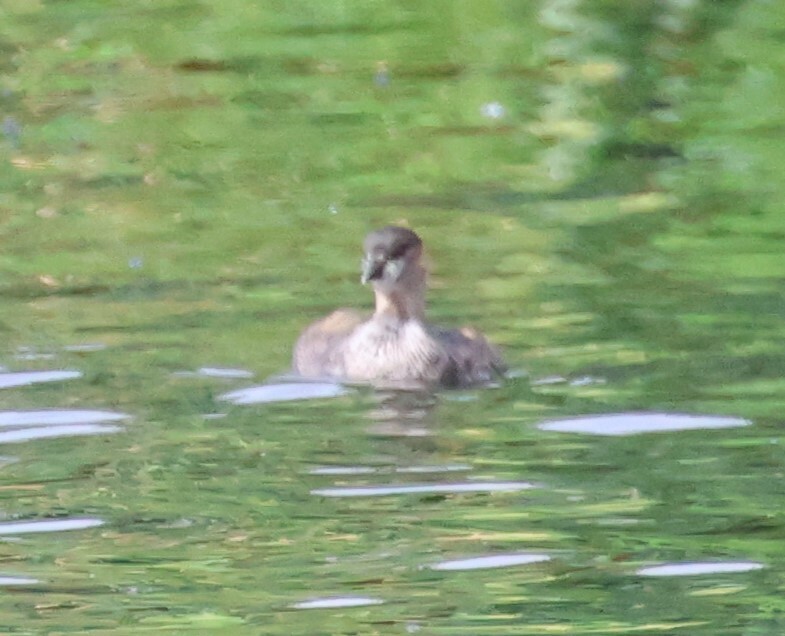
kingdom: Animalia
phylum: Chordata
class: Aves
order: Podicipediformes
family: Podicipedidae
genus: Tachybaptus
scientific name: Tachybaptus ruficollis
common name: Little grebe
